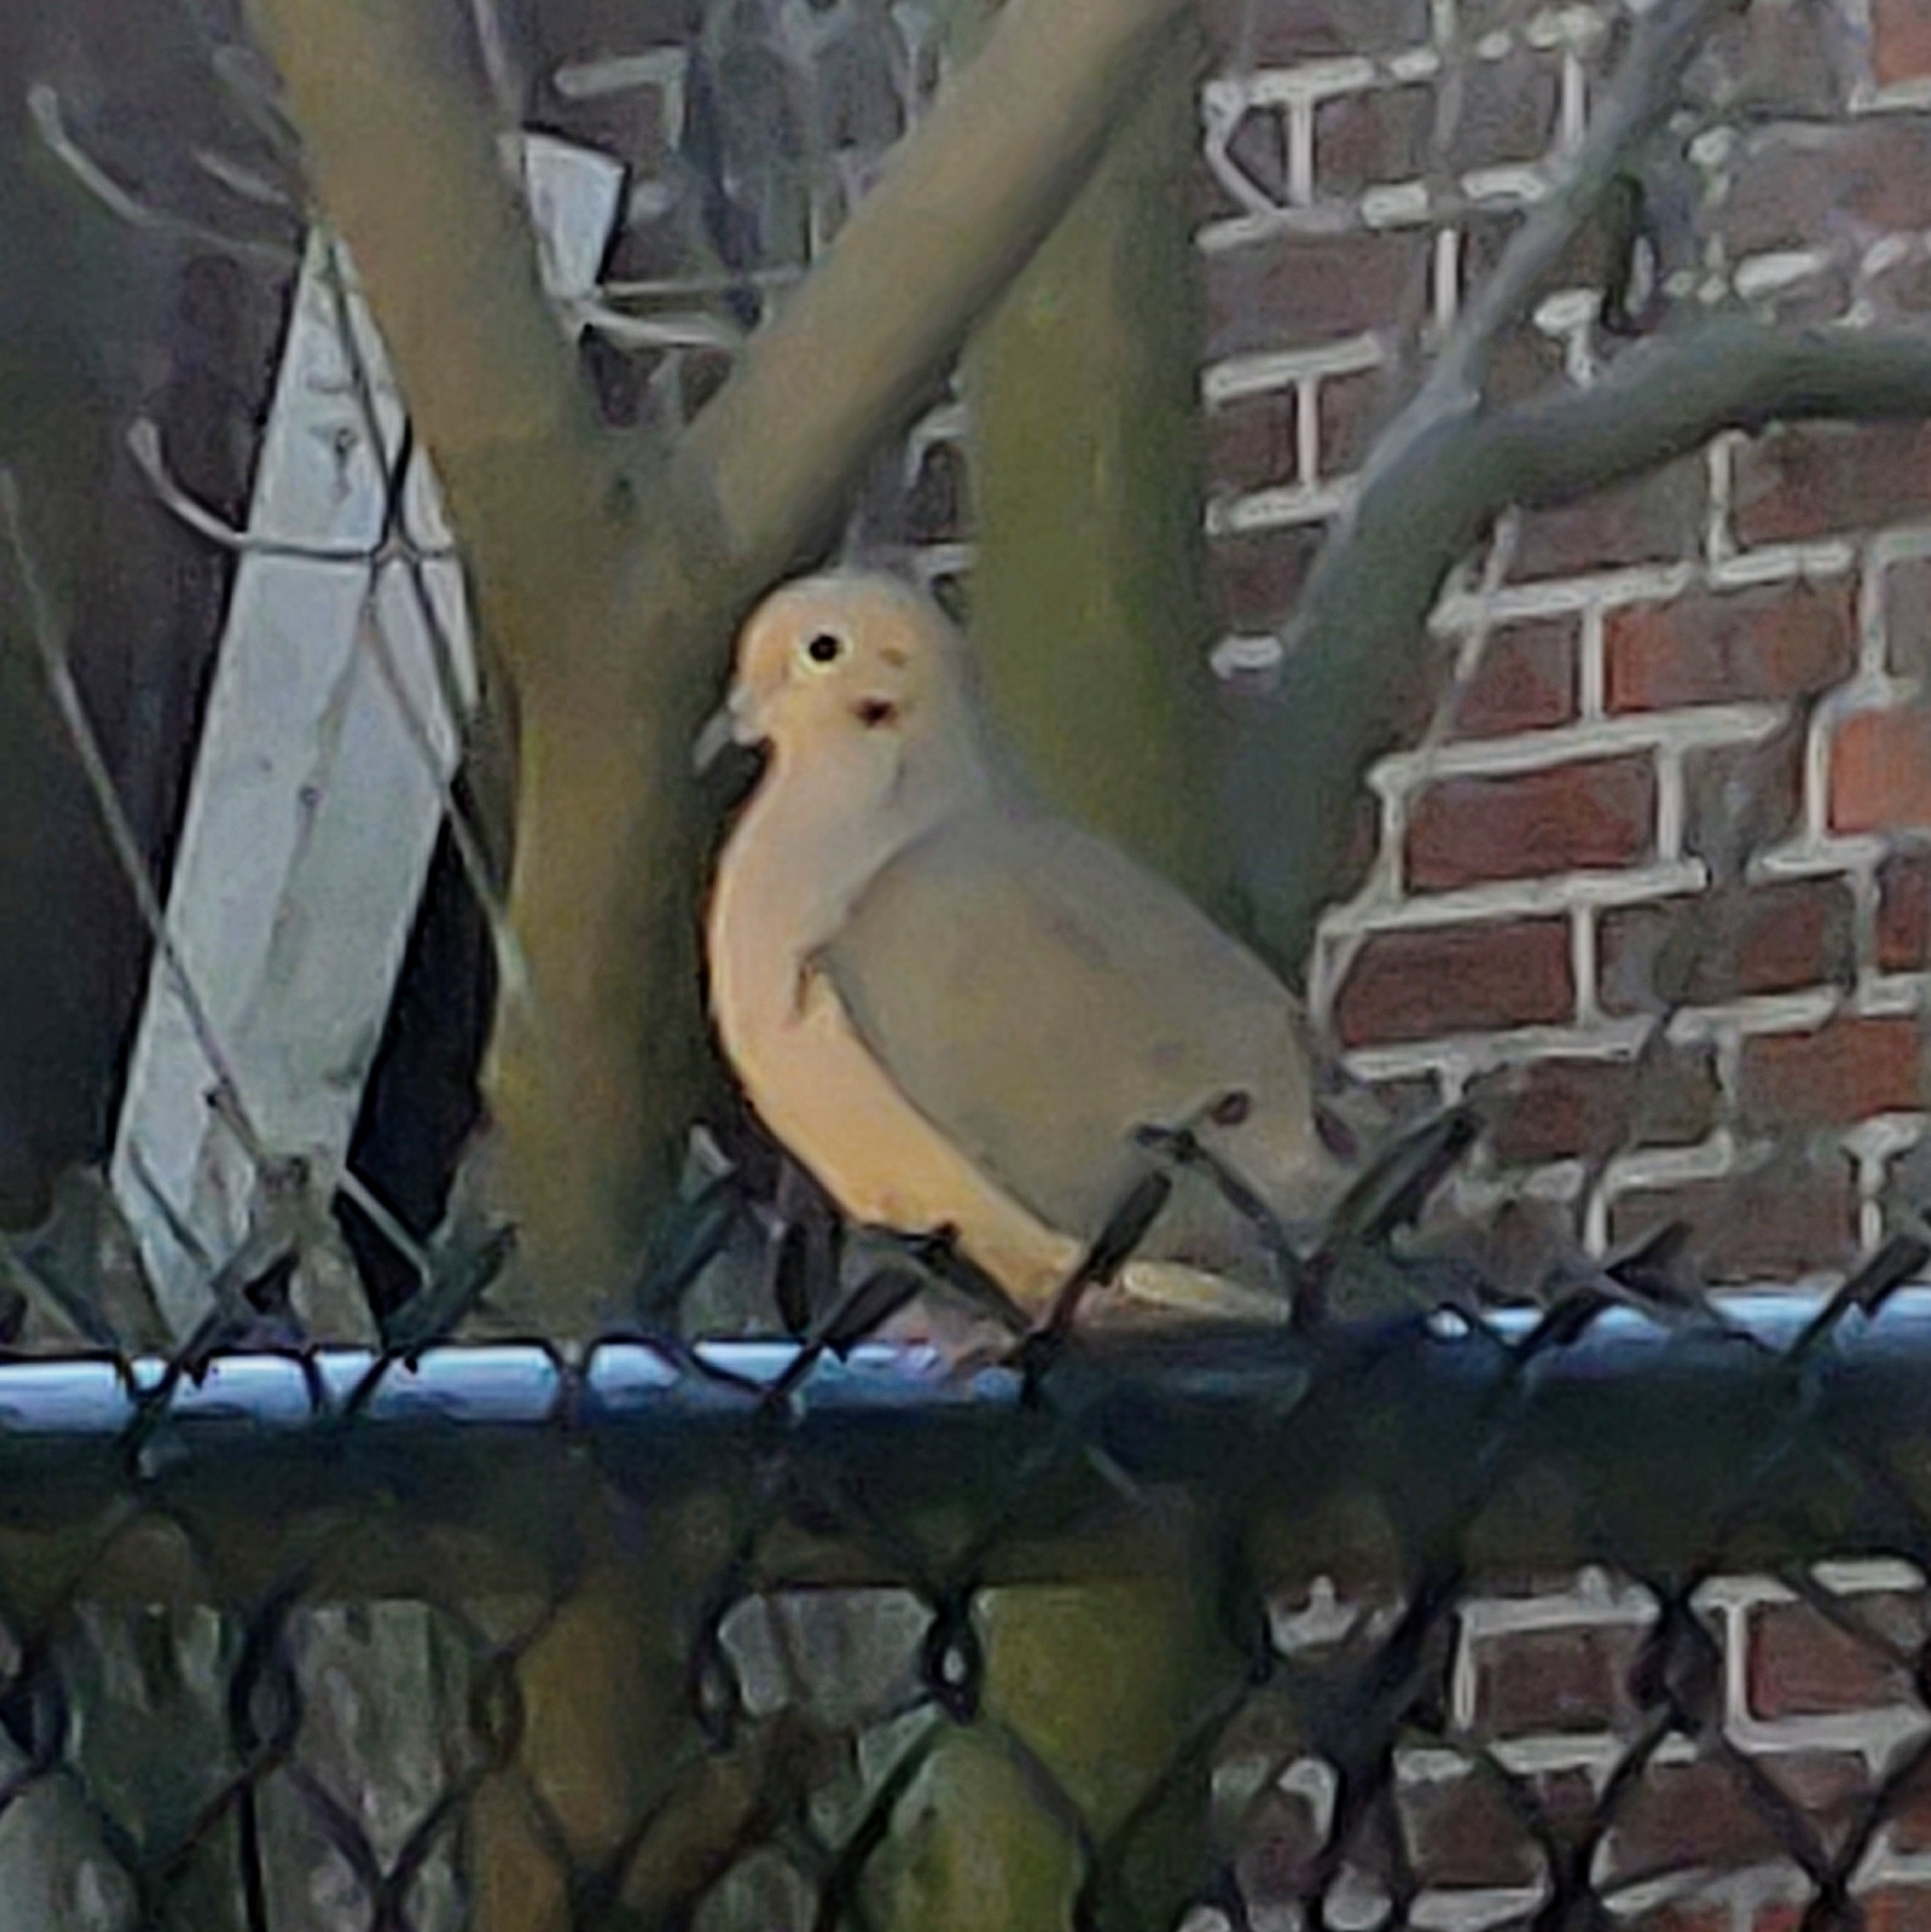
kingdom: Animalia
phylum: Chordata
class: Aves
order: Columbiformes
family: Columbidae
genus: Zenaida
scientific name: Zenaida macroura
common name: Mourning dove
